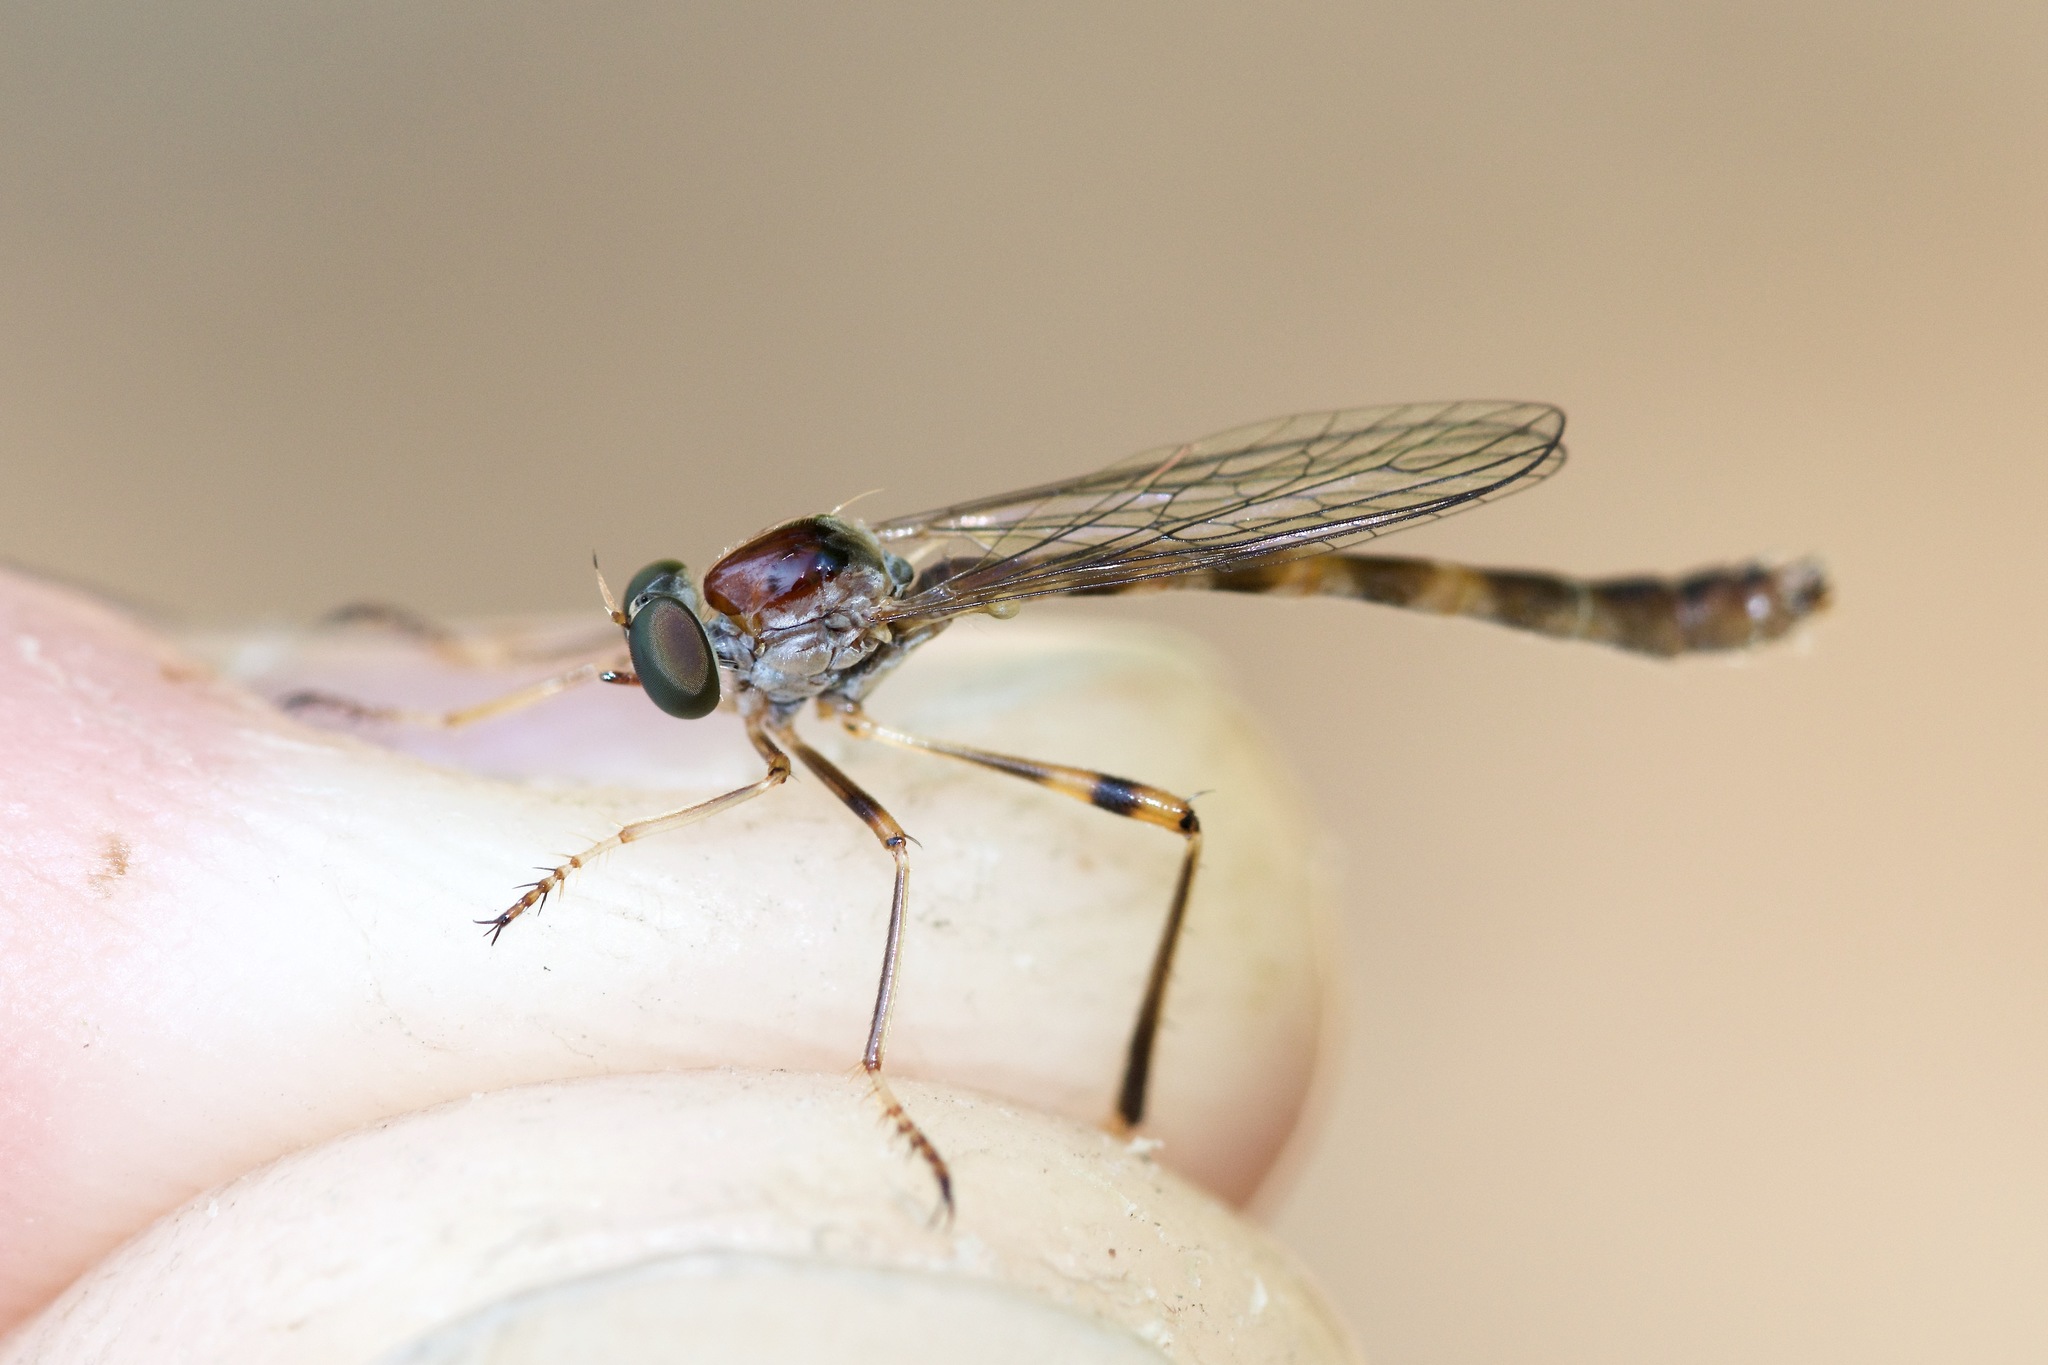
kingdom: Animalia
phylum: Arthropoda
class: Insecta
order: Diptera
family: Asilidae
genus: Tipulogaster
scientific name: Tipulogaster glabrata
